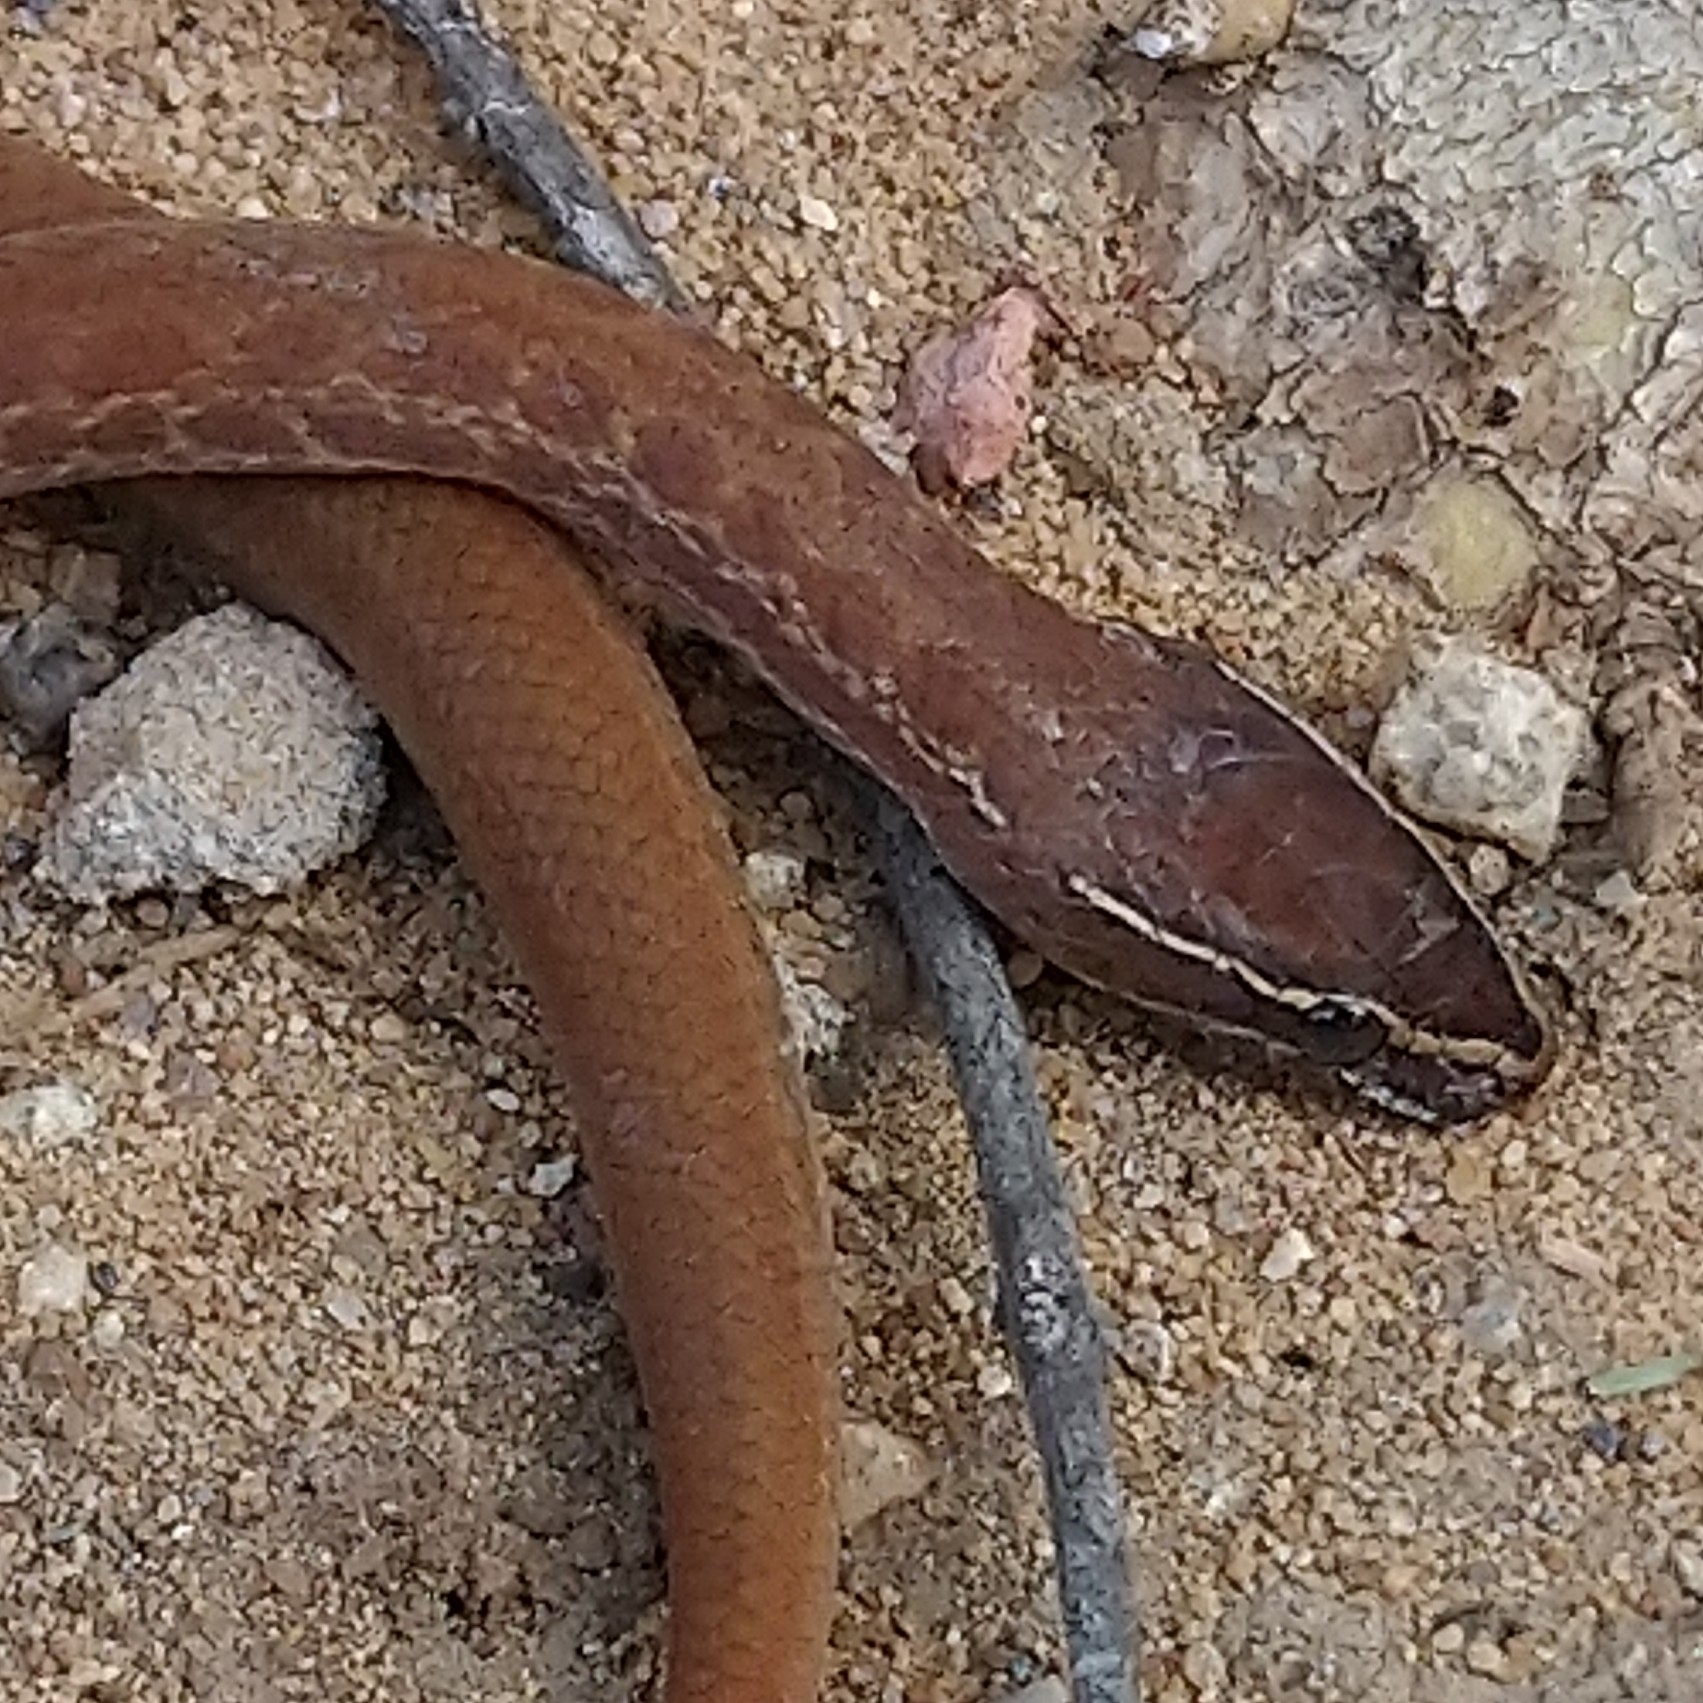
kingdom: Animalia
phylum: Chordata
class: Squamata
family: Lamprophiidae
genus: Boaedon
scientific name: Boaedon capensis
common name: Brown house snake
